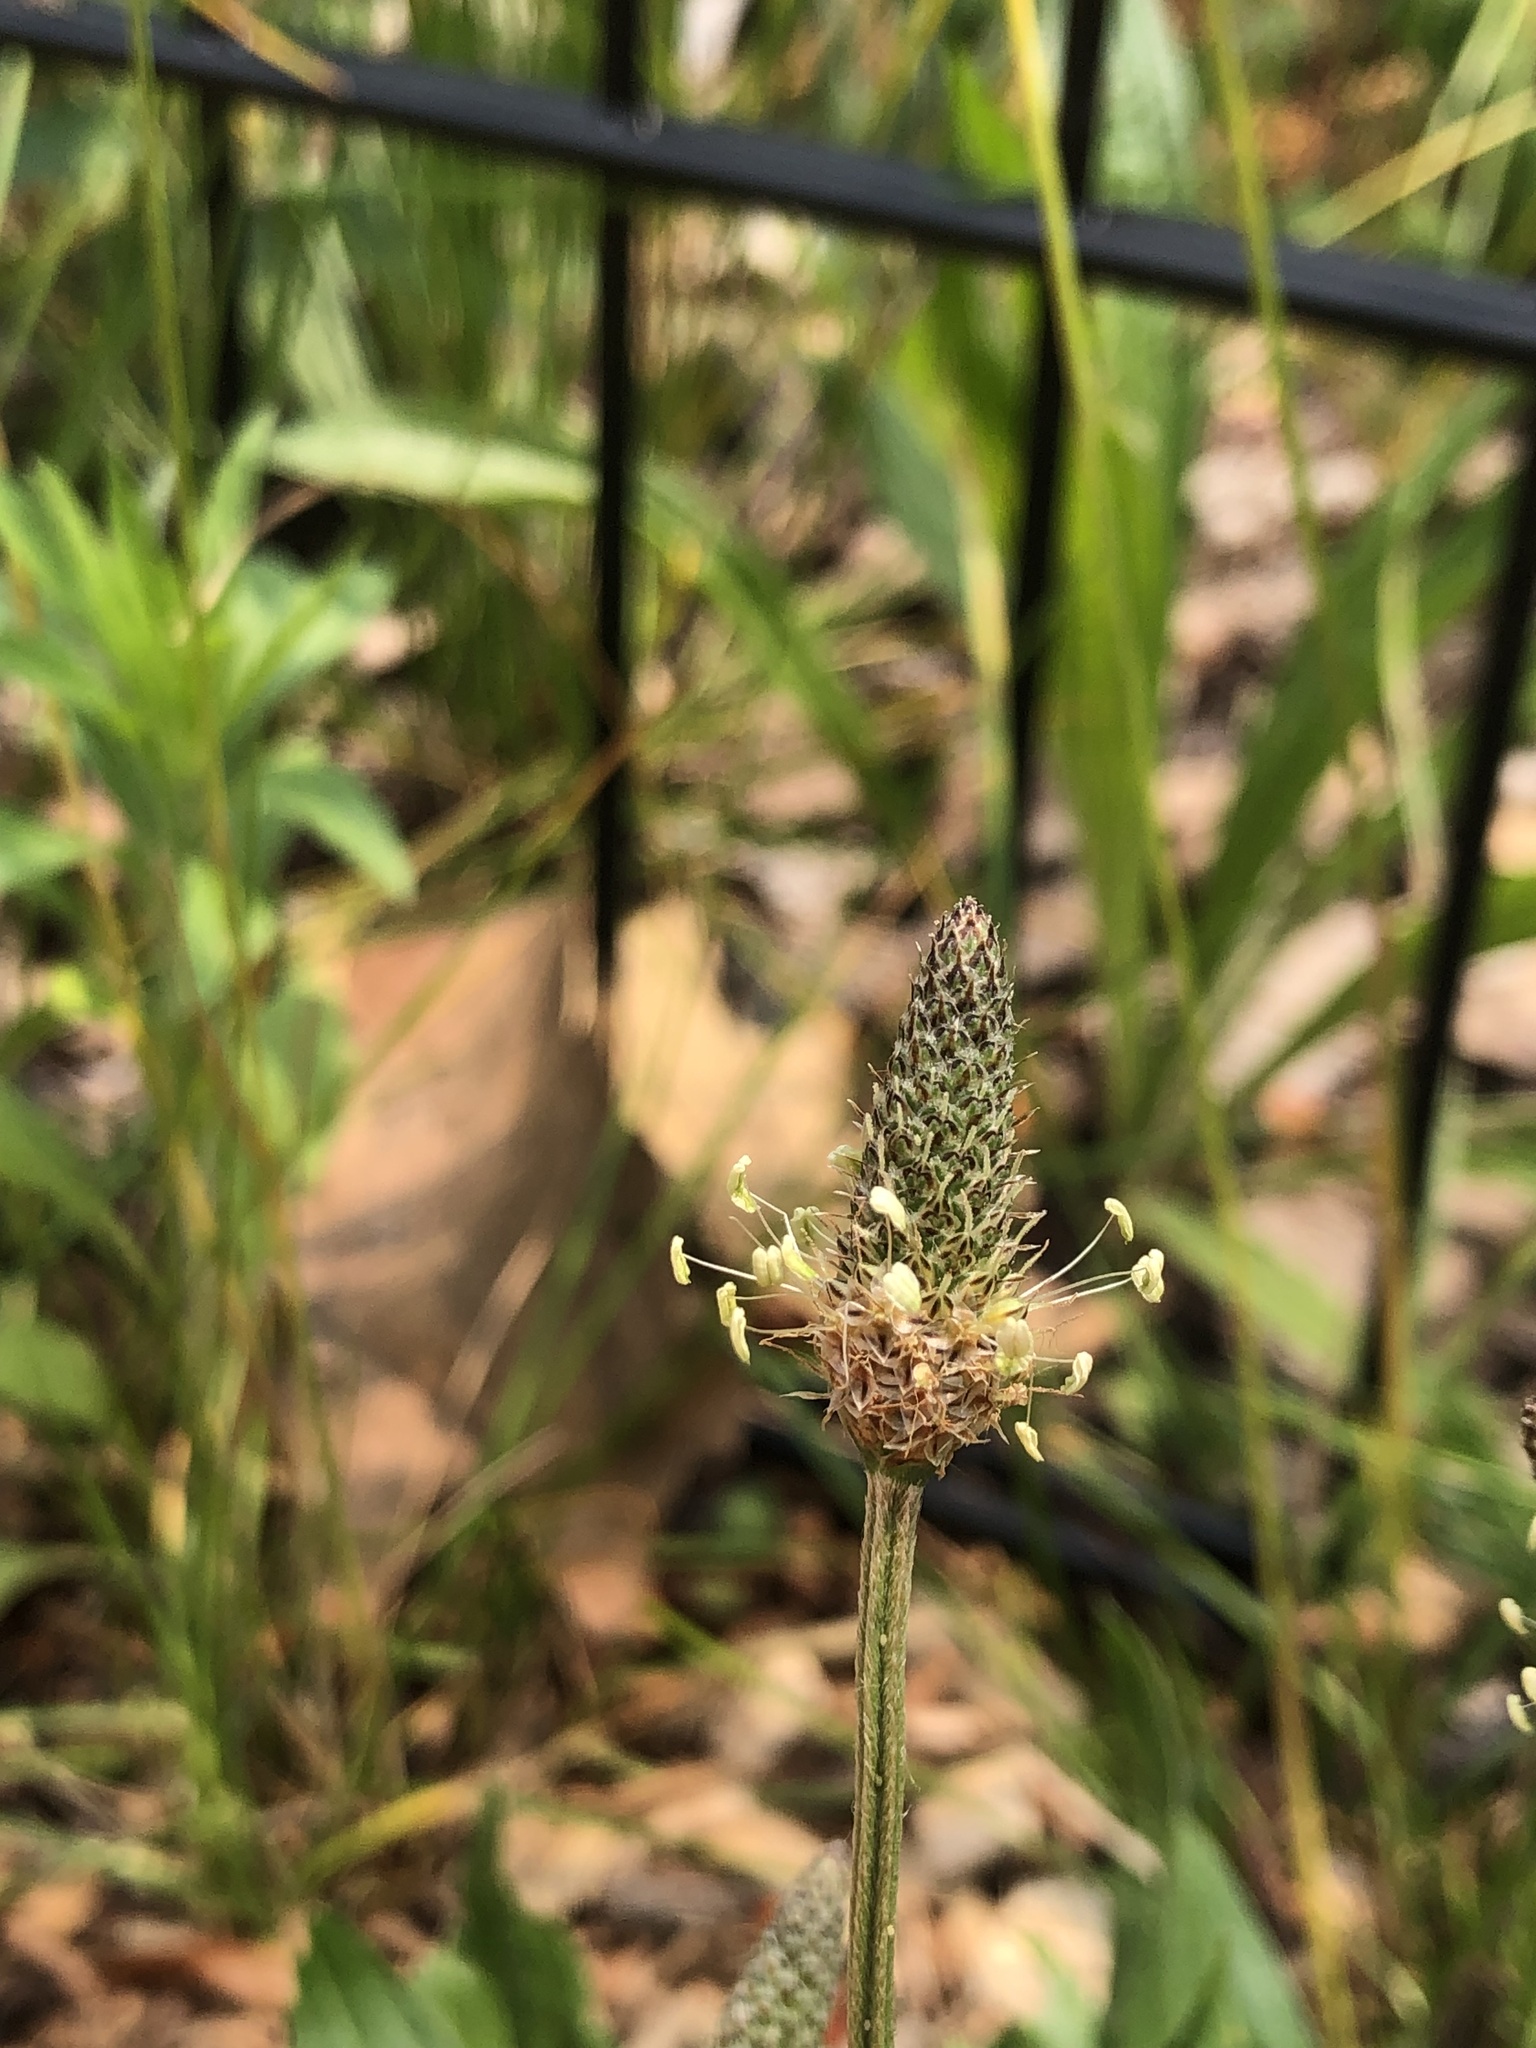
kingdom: Plantae
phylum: Tracheophyta
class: Magnoliopsida
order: Lamiales
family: Plantaginaceae
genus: Plantago
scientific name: Plantago lanceolata
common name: Ribwort plantain
